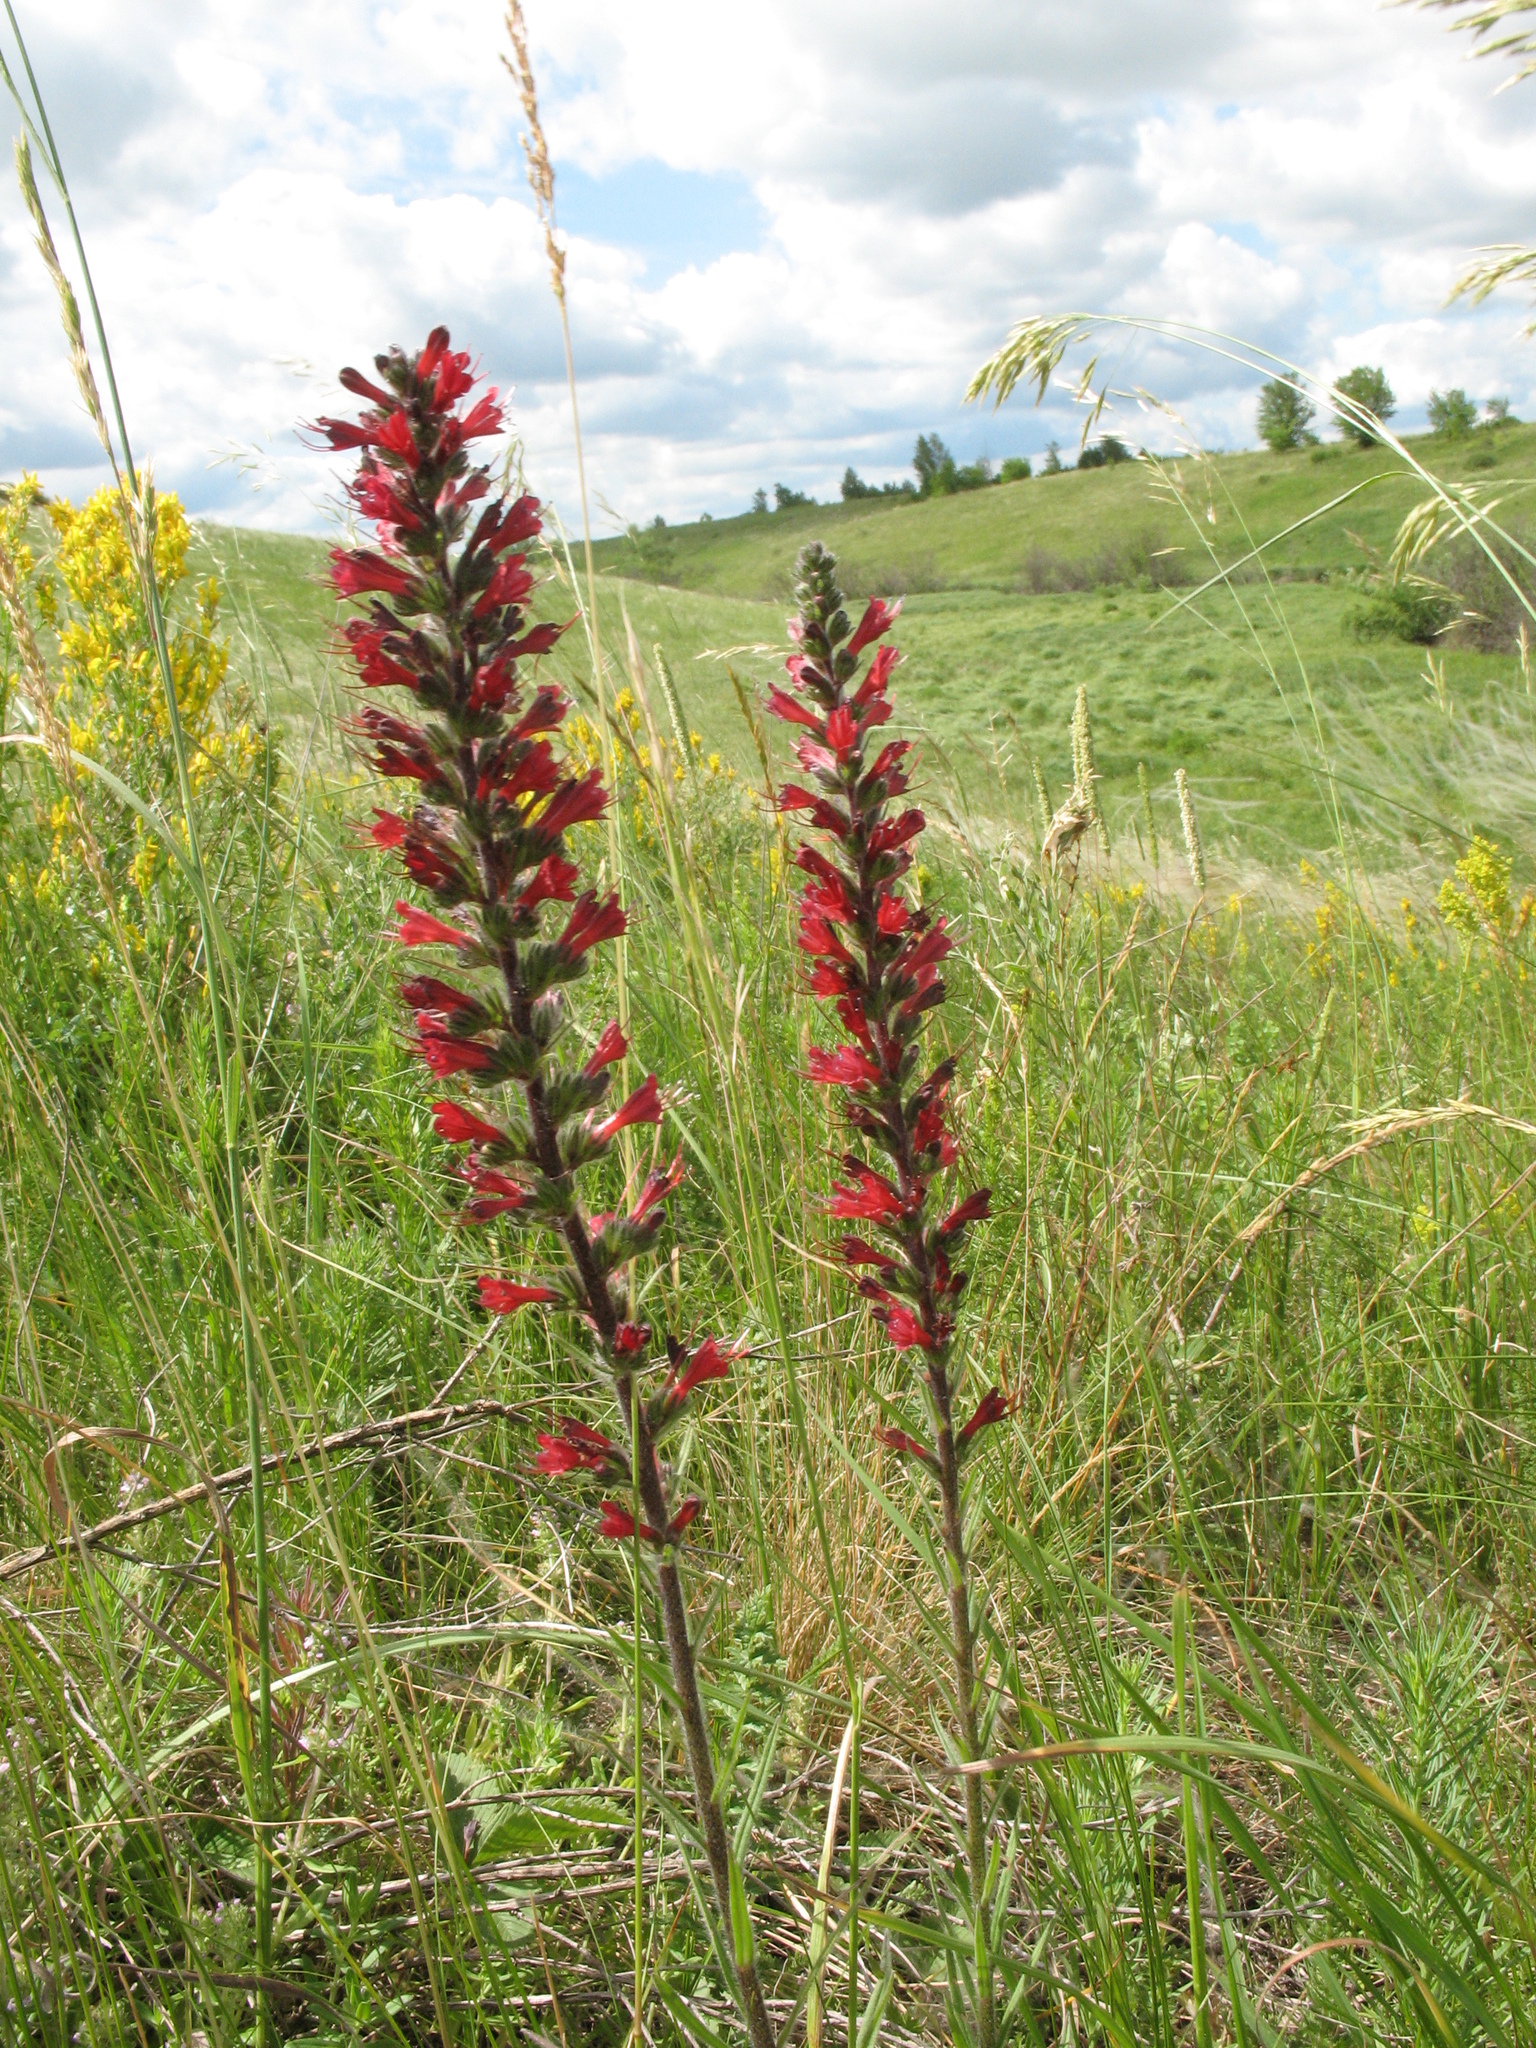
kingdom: Plantae
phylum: Tracheophyta
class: Magnoliopsida
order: Boraginales
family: Boraginaceae
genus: Pontechium
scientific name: Pontechium maculatum
